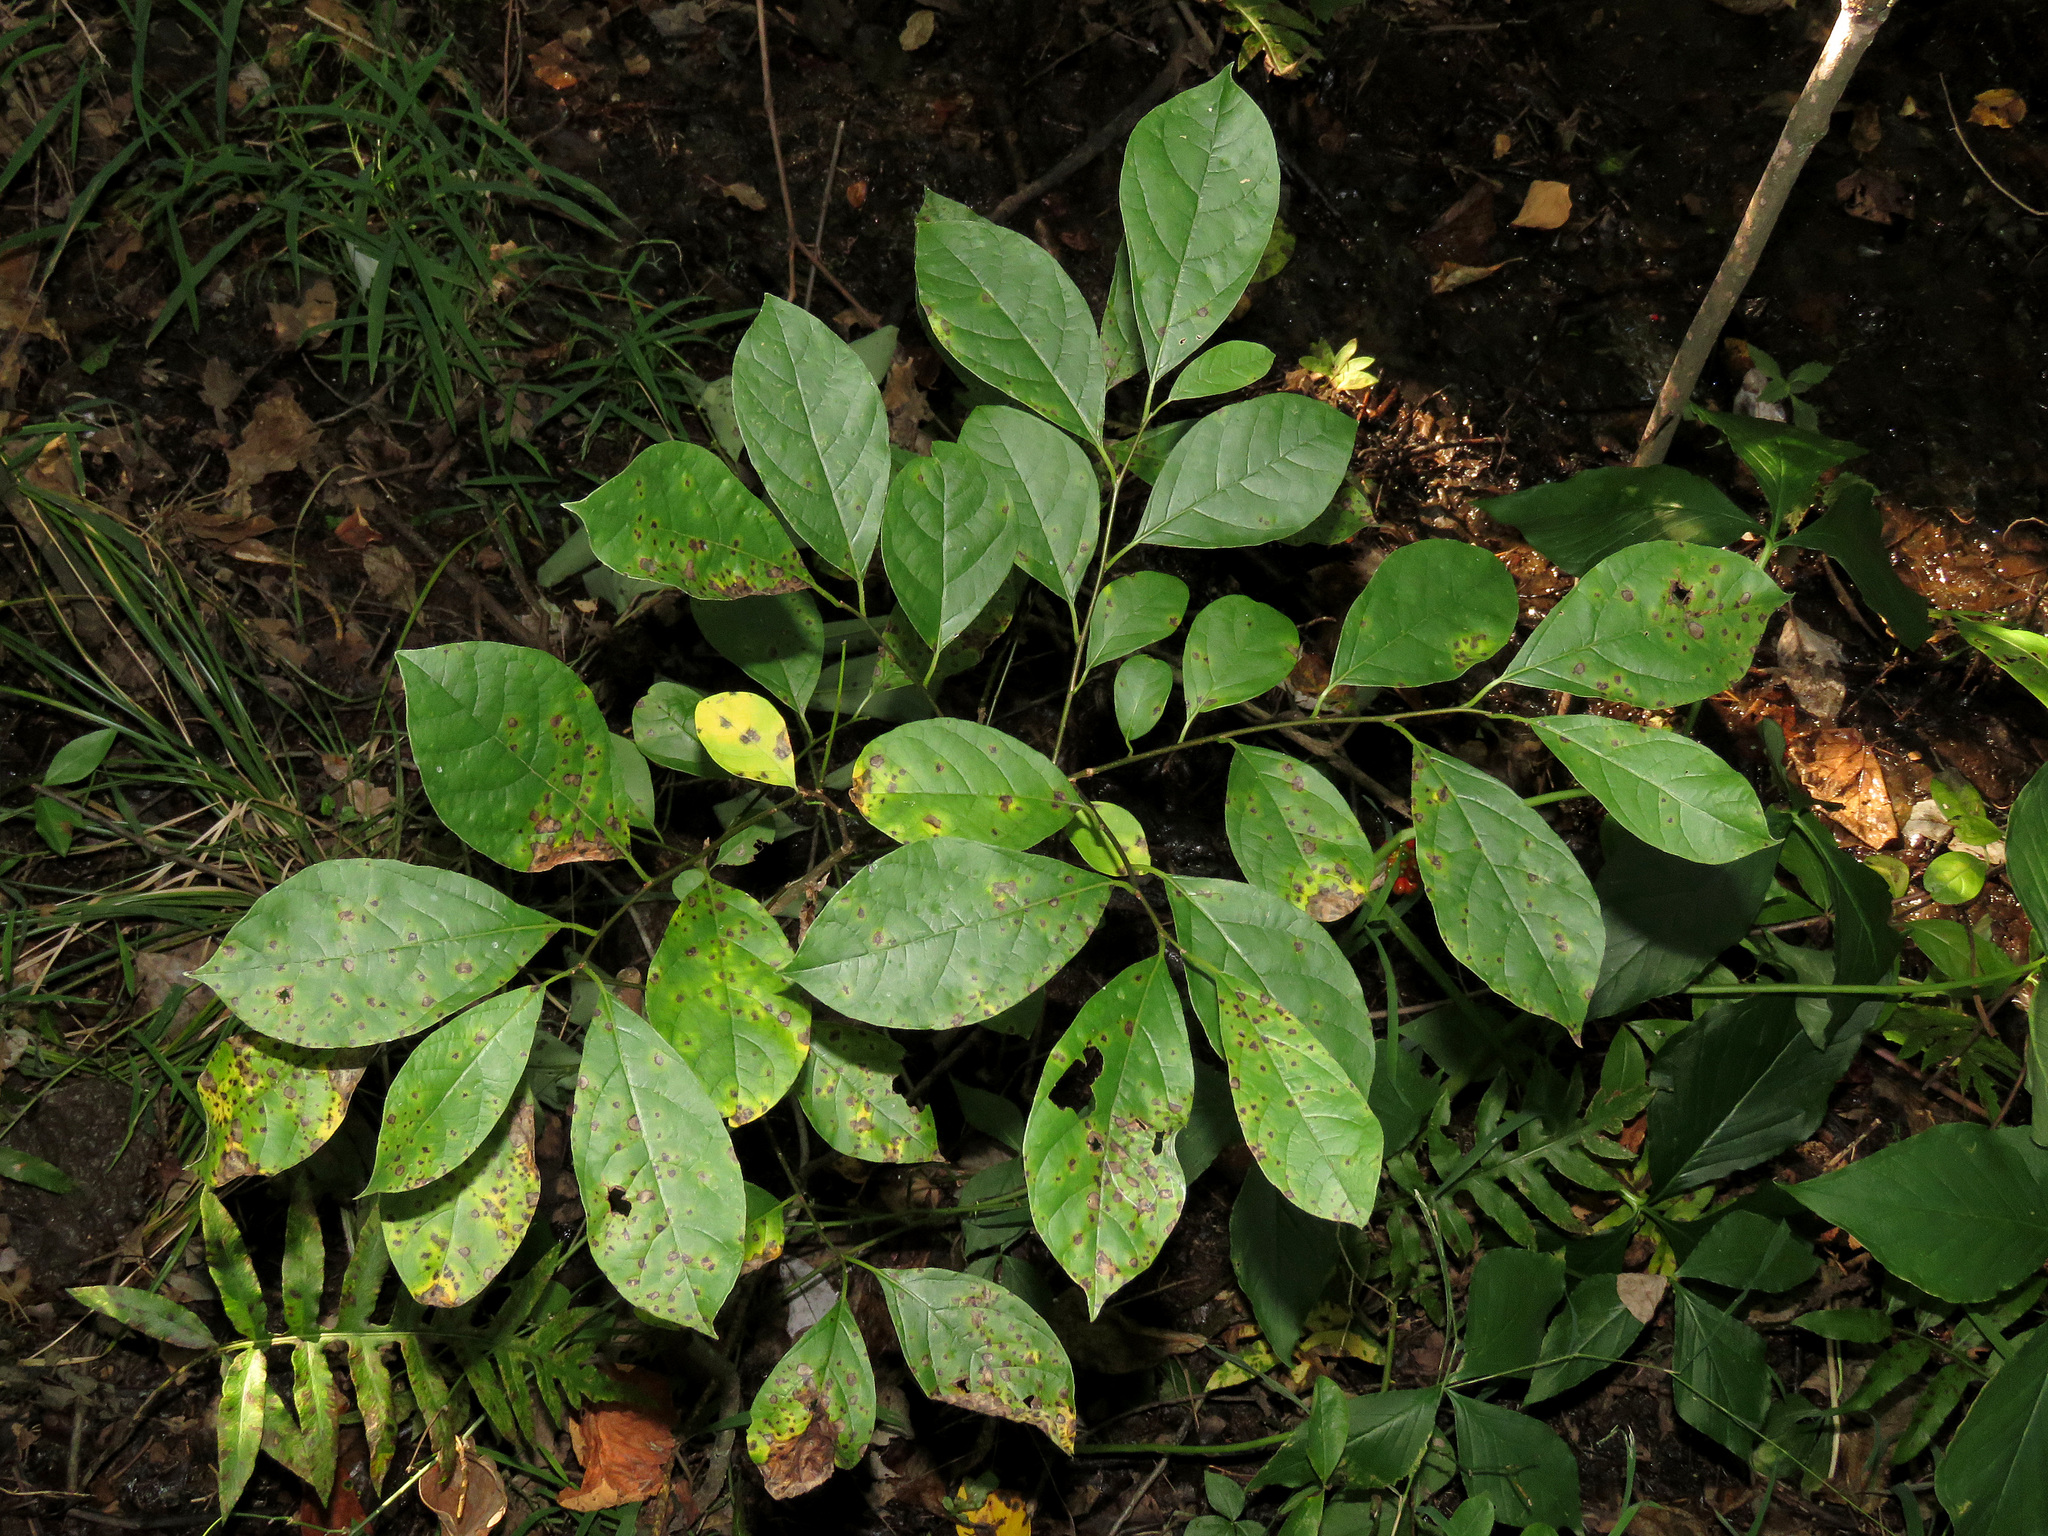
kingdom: Plantae
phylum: Tracheophyta
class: Magnoliopsida
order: Laurales
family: Lauraceae
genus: Lindera
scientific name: Lindera benzoin
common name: Spicebush
